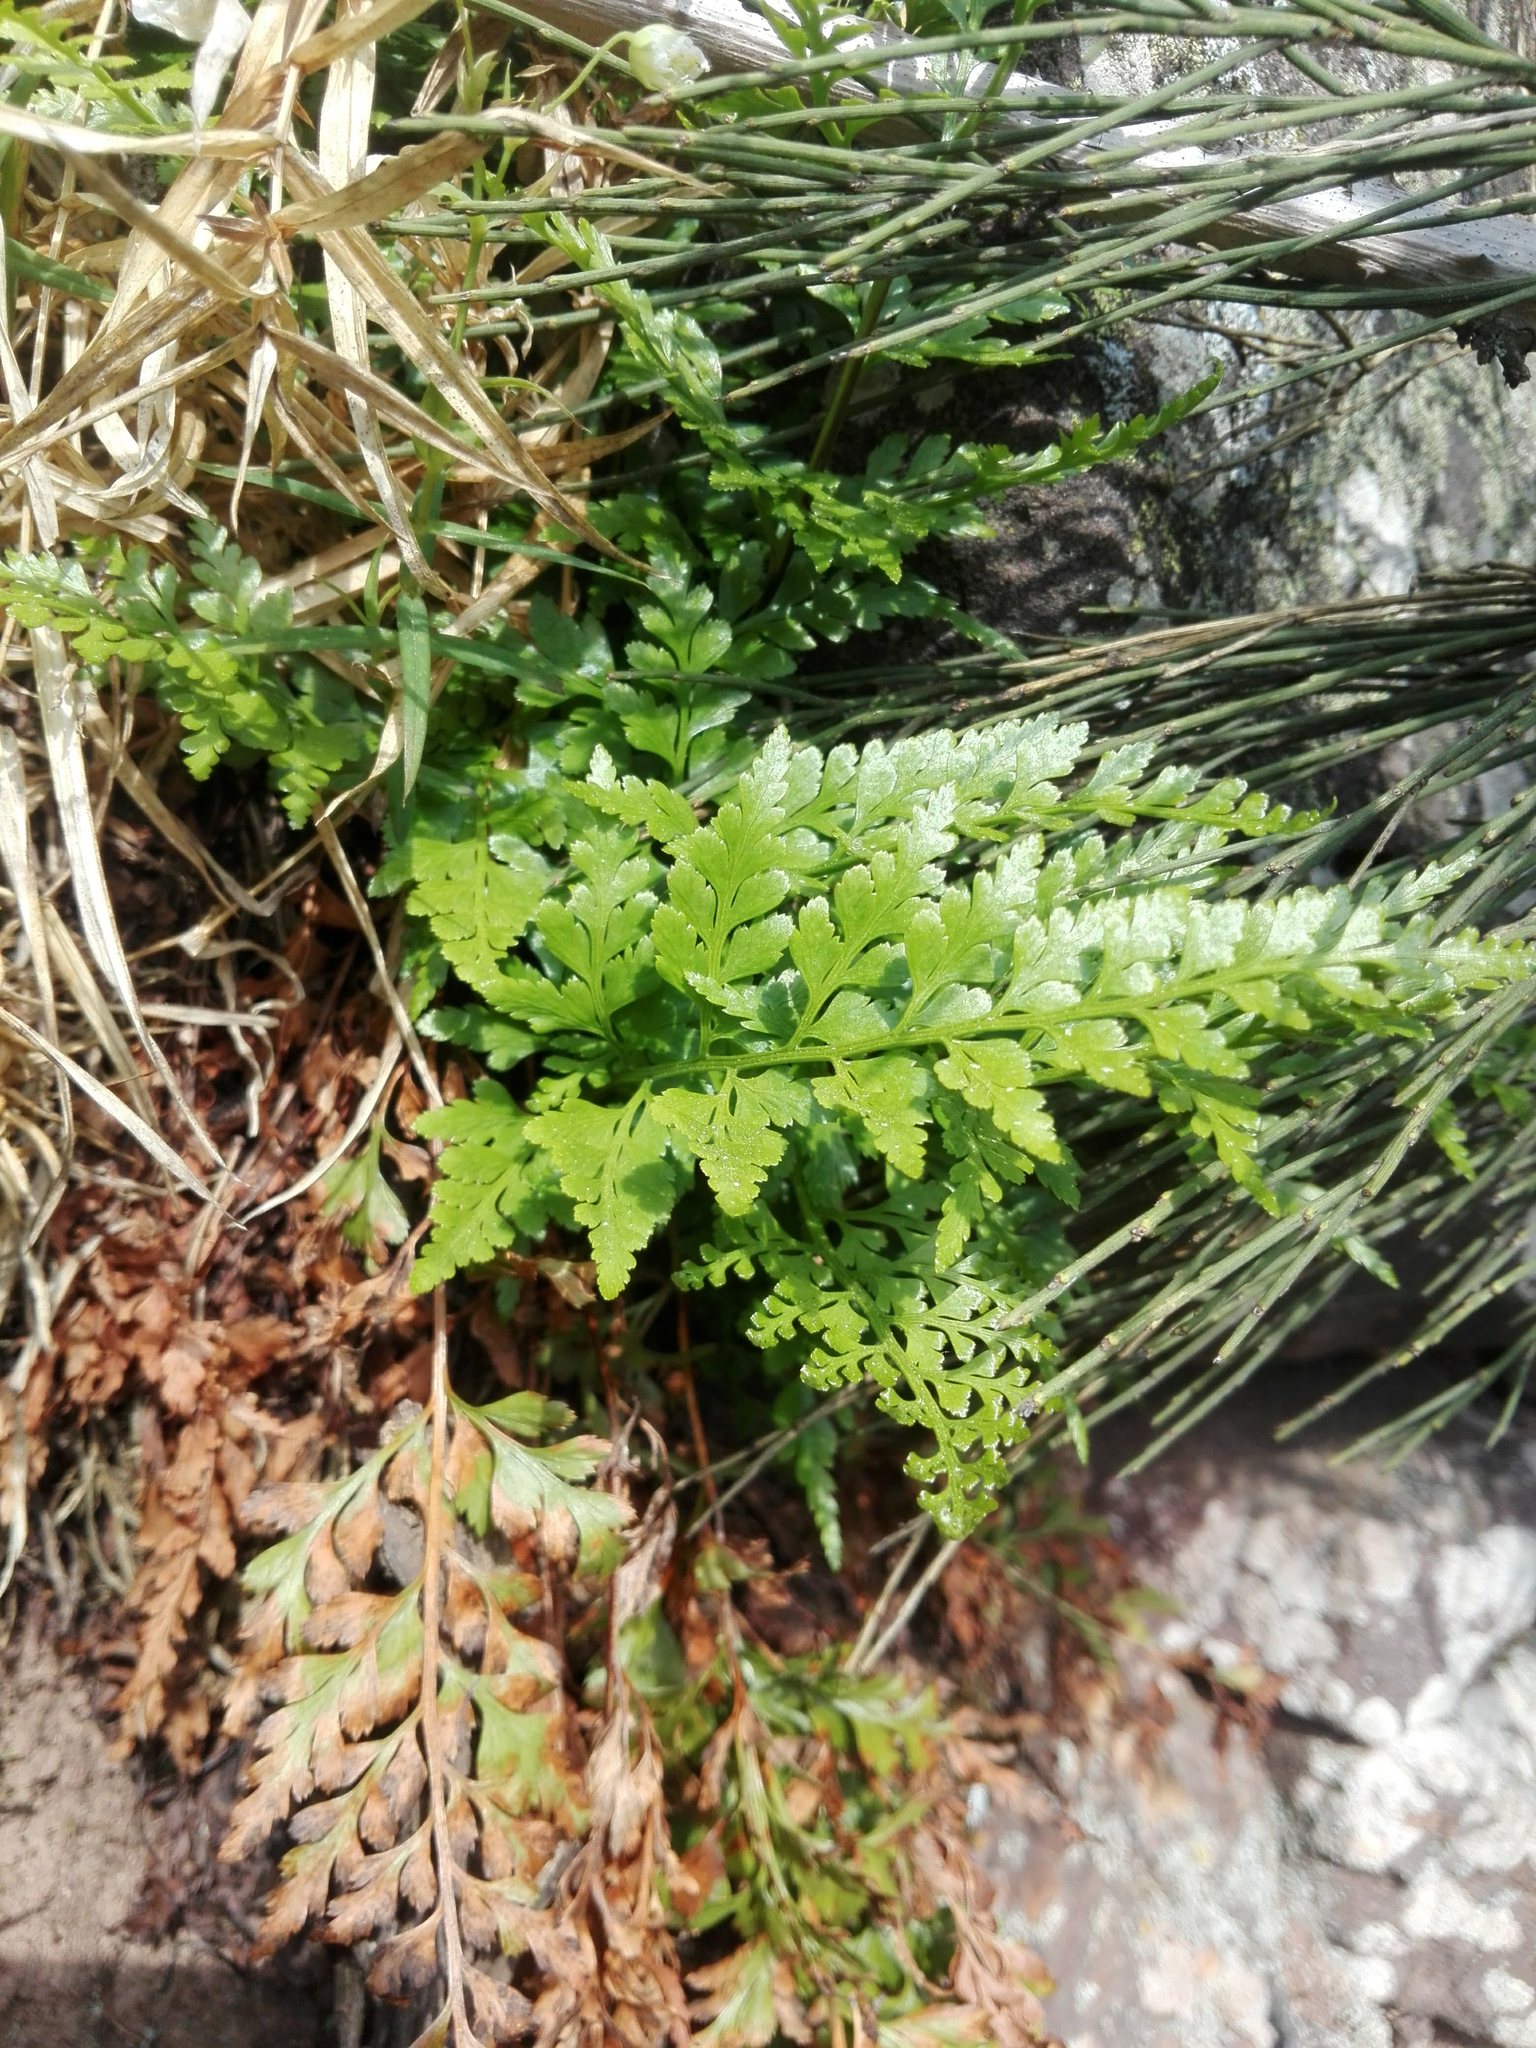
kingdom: Plantae
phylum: Tracheophyta
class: Polypodiopsida
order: Polypodiales
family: Aspleniaceae
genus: Asplenium
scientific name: Asplenium adiantum-nigrum
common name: Black spleenwort
